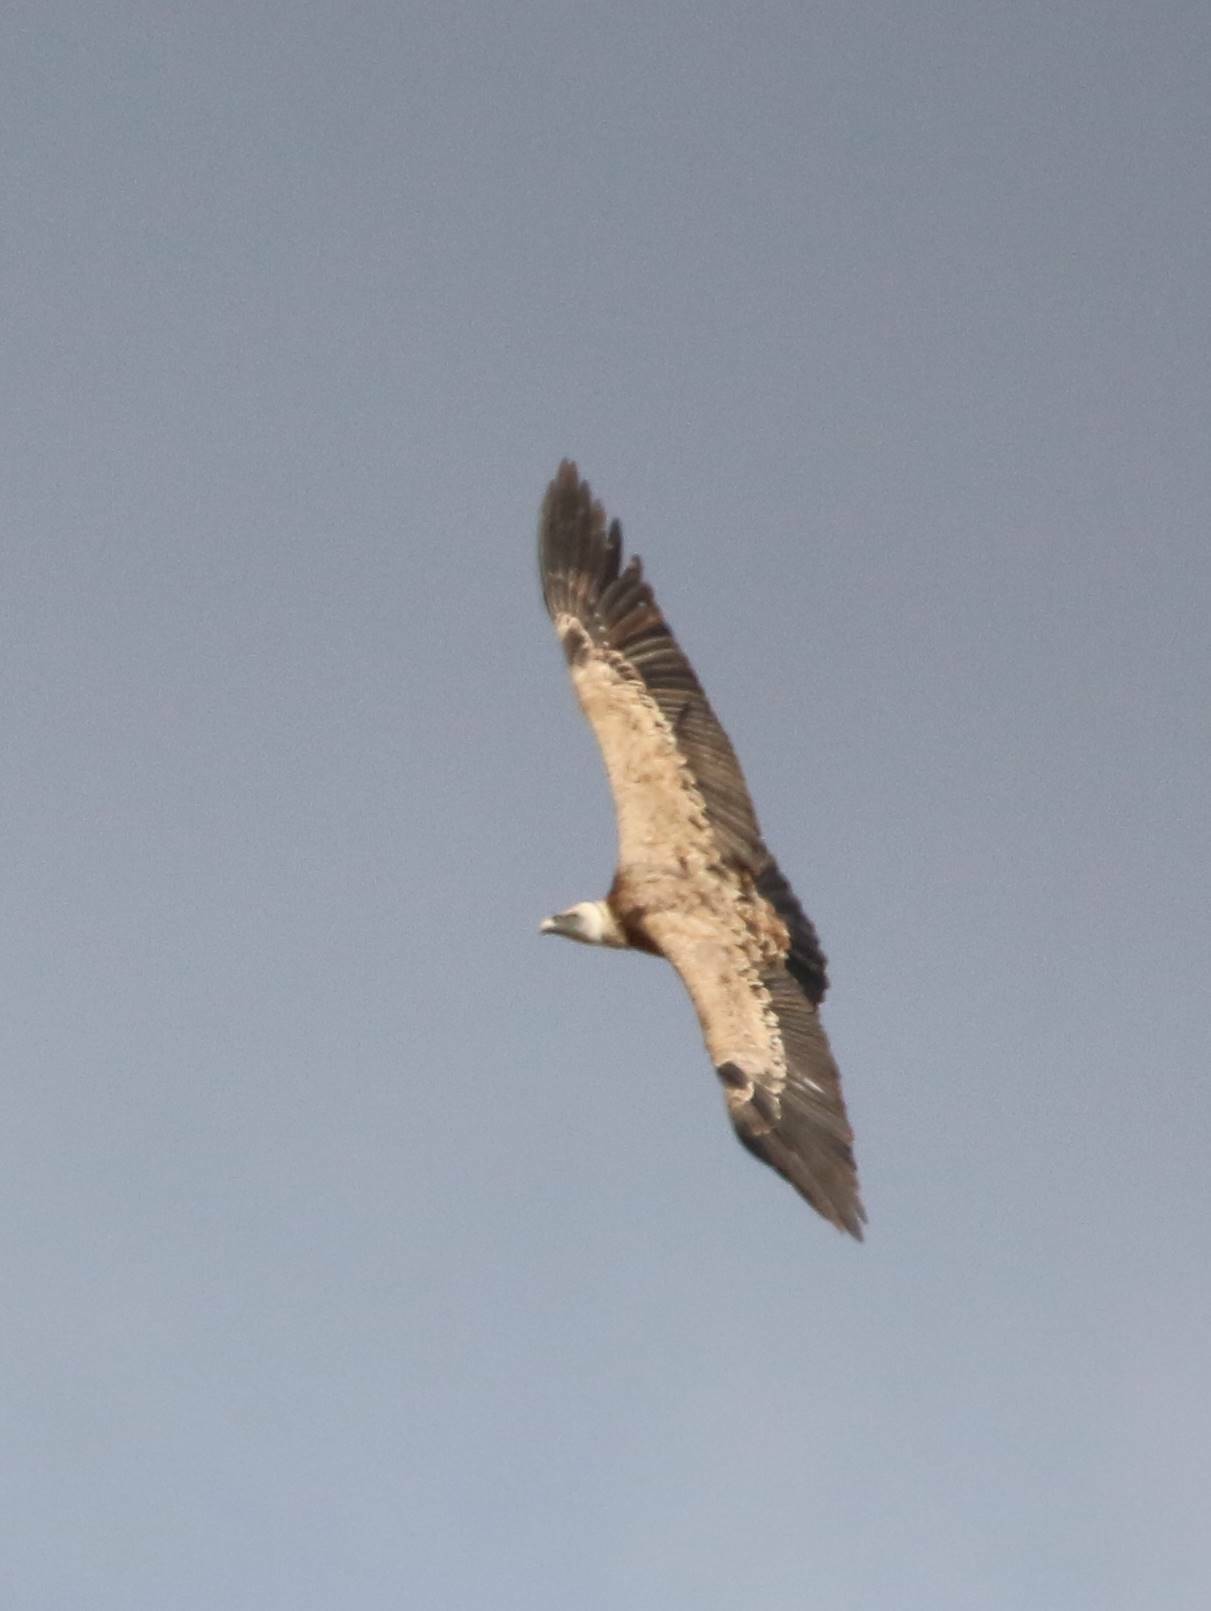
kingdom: Animalia
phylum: Chordata
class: Aves
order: Accipitriformes
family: Accipitridae
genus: Gyps
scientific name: Gyps fulvus
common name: Griffon vulture
